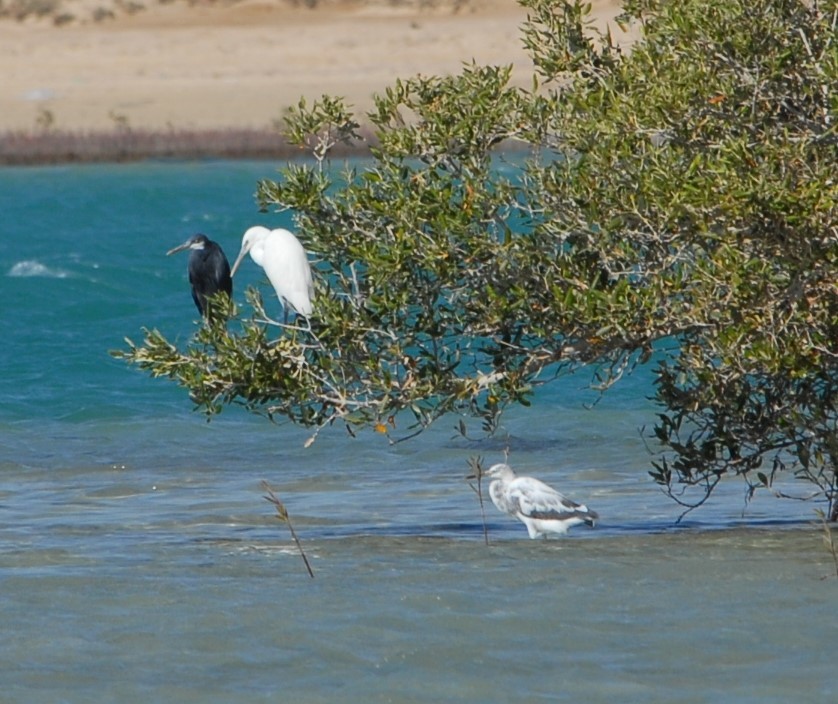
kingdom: Animalia
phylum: Chordata
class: Aves
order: Pelecaniformes
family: Ardeidae
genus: Egretta
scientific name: Egretta gularis
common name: Western reef-heron
